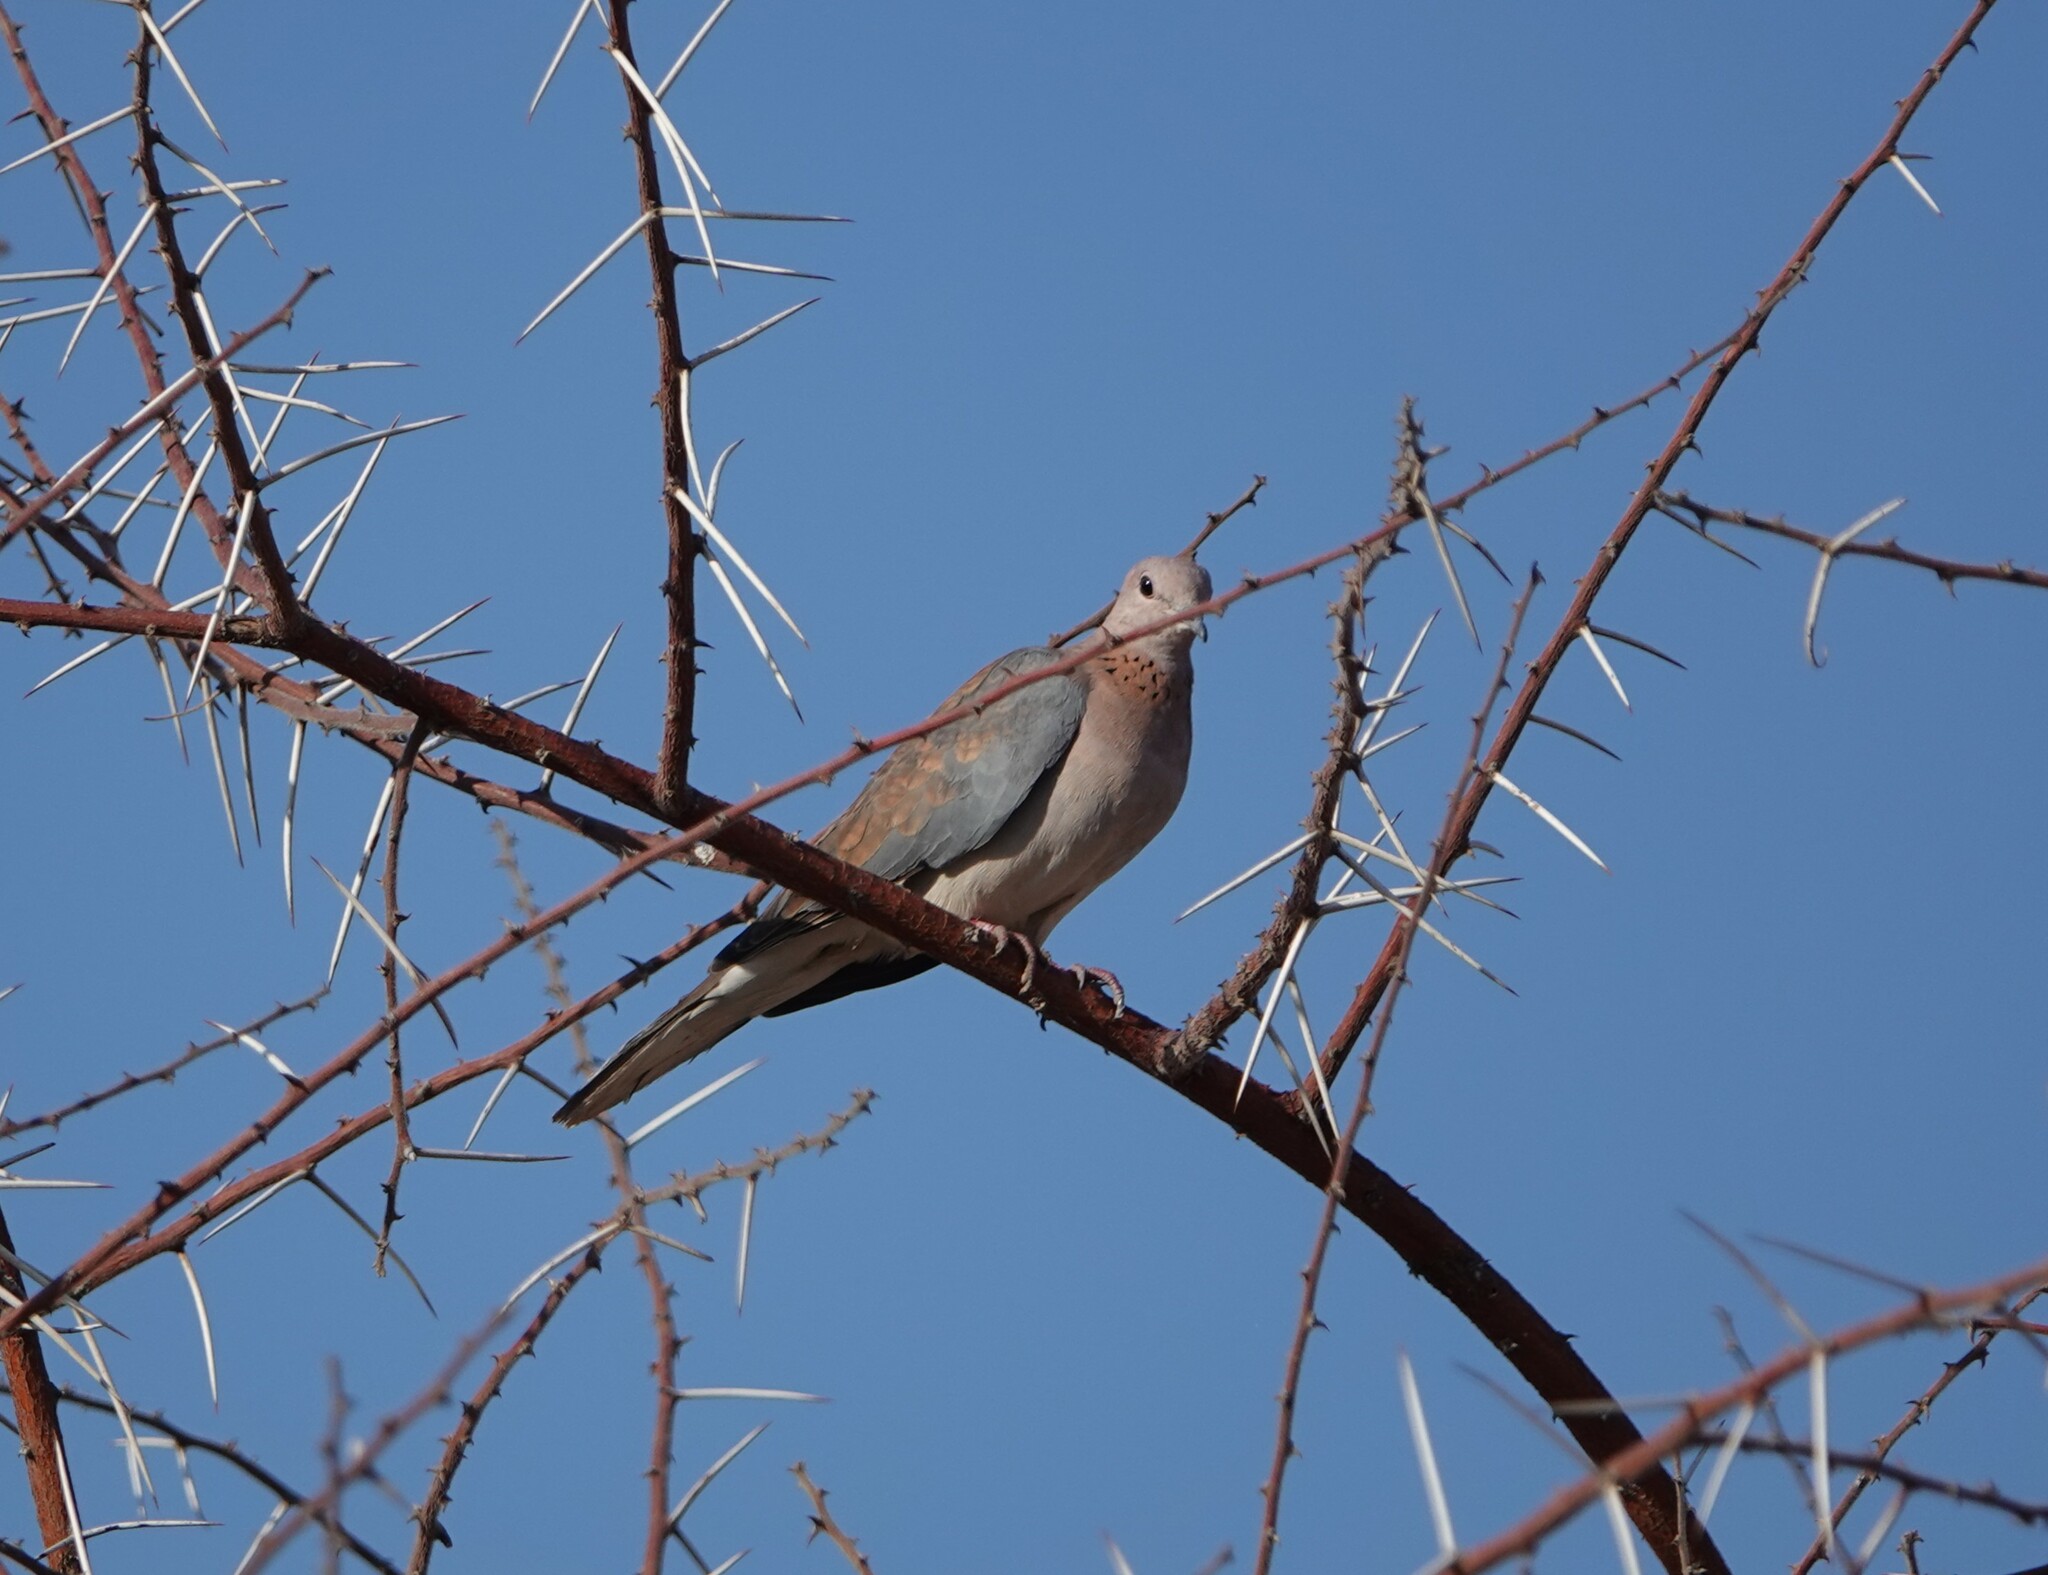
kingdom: Animalia
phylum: Chordata
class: Aves
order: Columbiformes
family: Columbidae
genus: Spilopelia
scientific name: Spilopelia senegalensis
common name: Laughing dove
